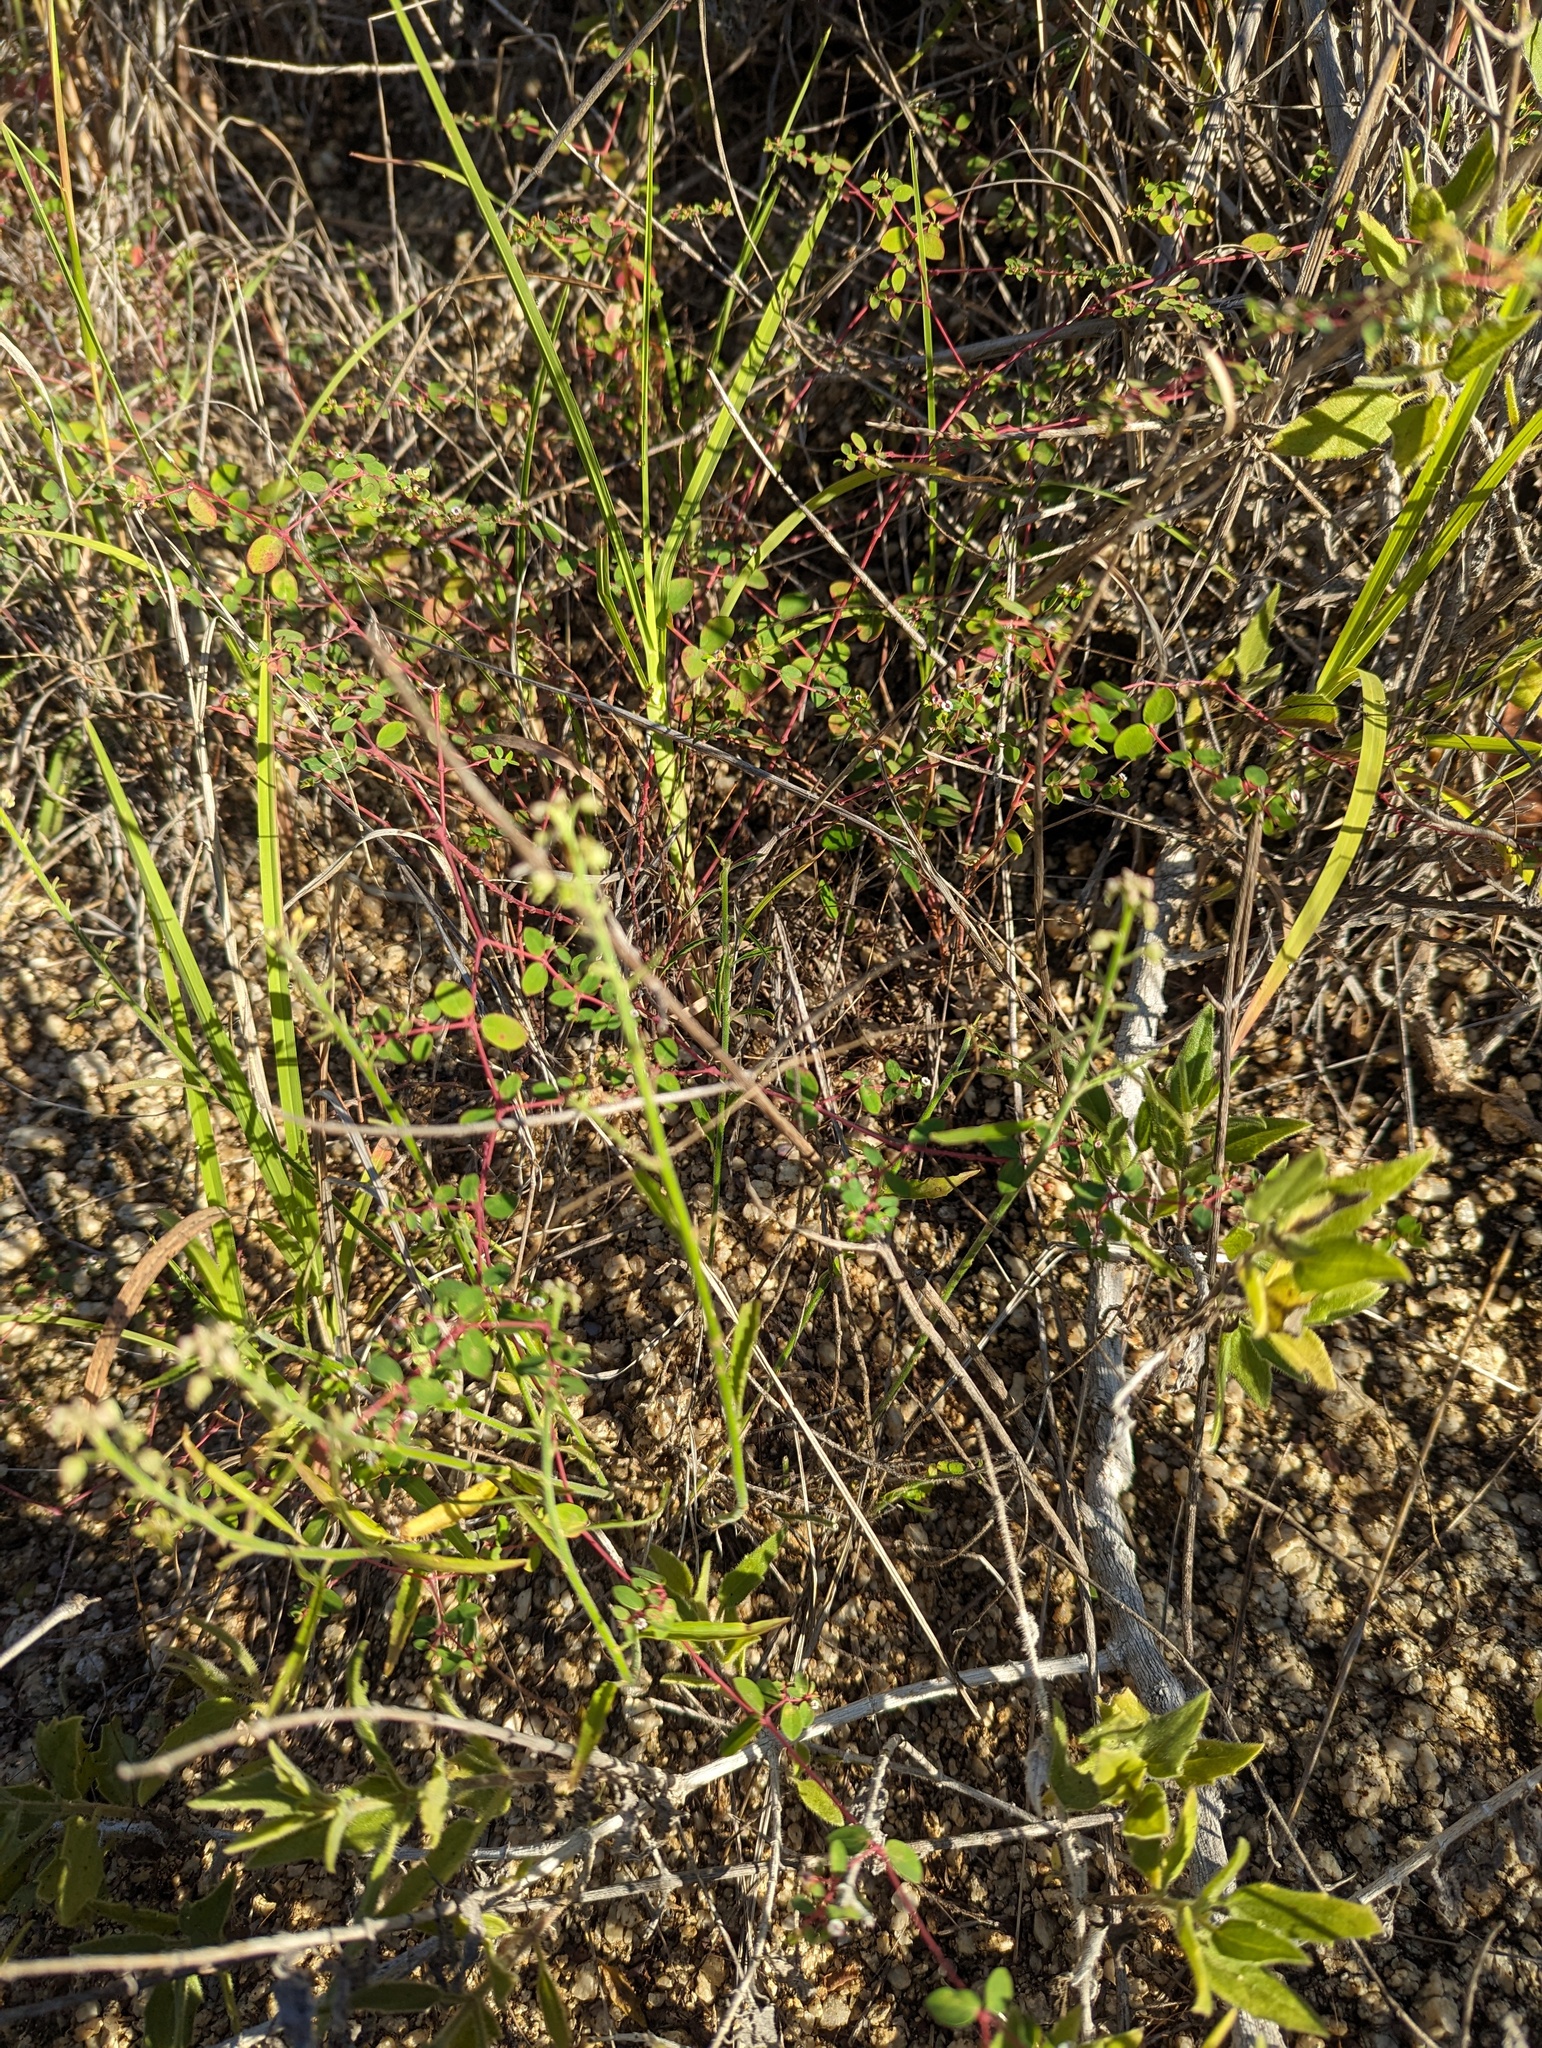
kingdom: Plantae
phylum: Tracheophyta
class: Magnoliopsida
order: Malpighiales
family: Violaceae
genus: Hybanthus
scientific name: Hybanthus fruticulosus
